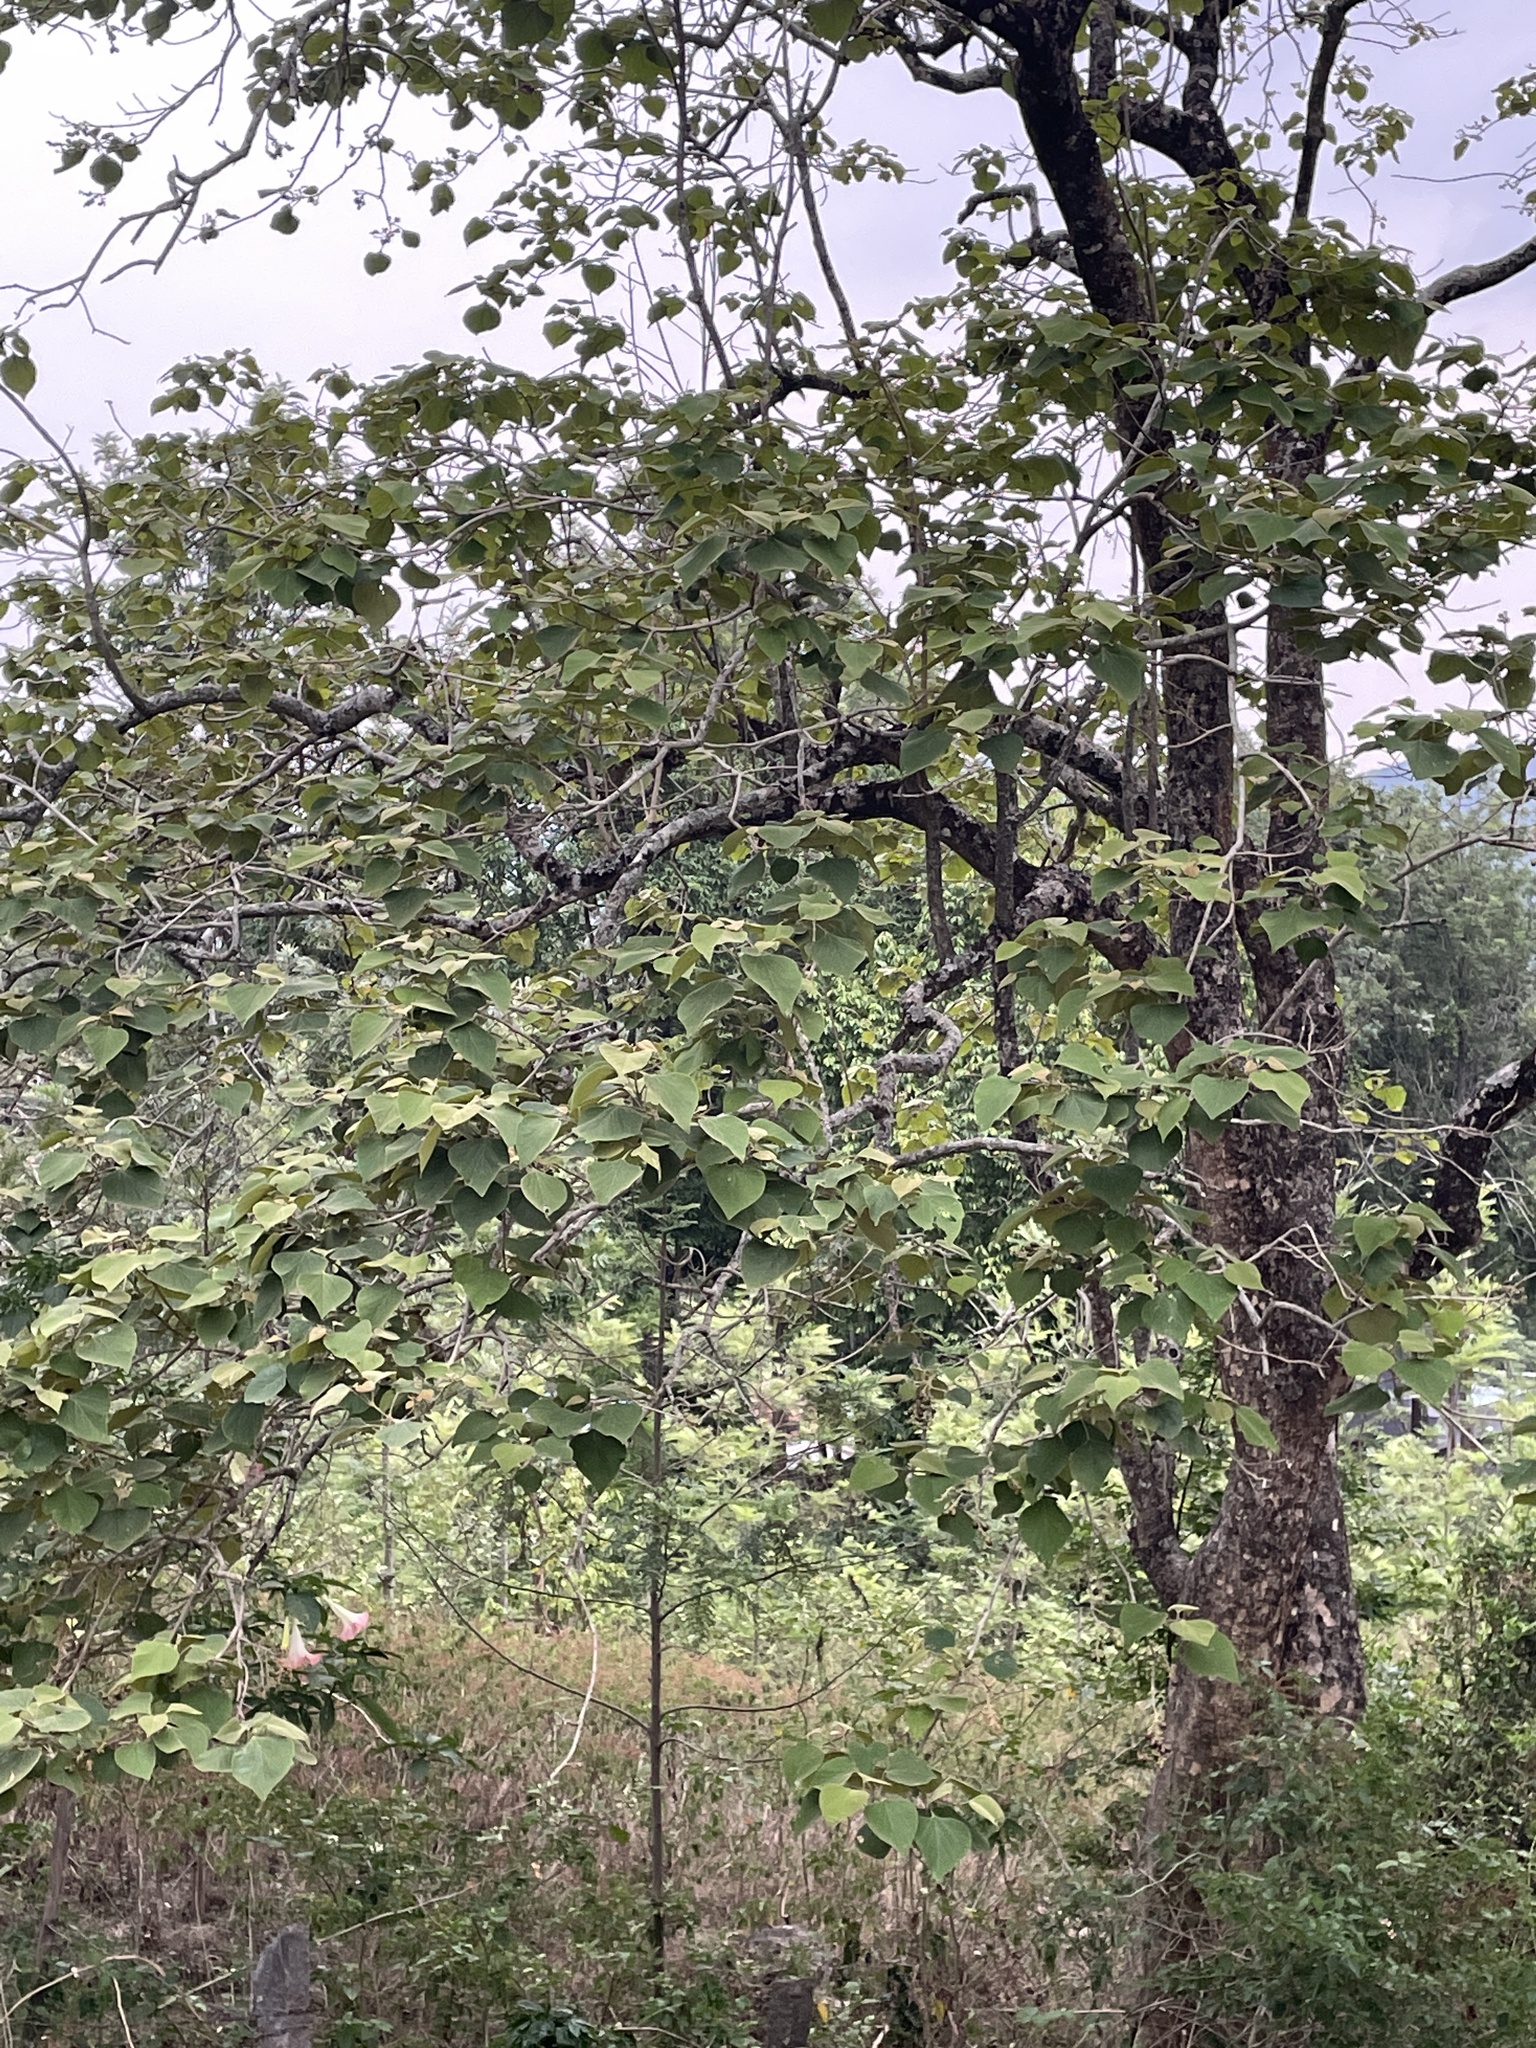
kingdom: Plantae
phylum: Tracheophyta
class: Magnoliopsida
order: Lamiales
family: Lamiaceae
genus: Gmelina
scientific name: Gmelina arborea
